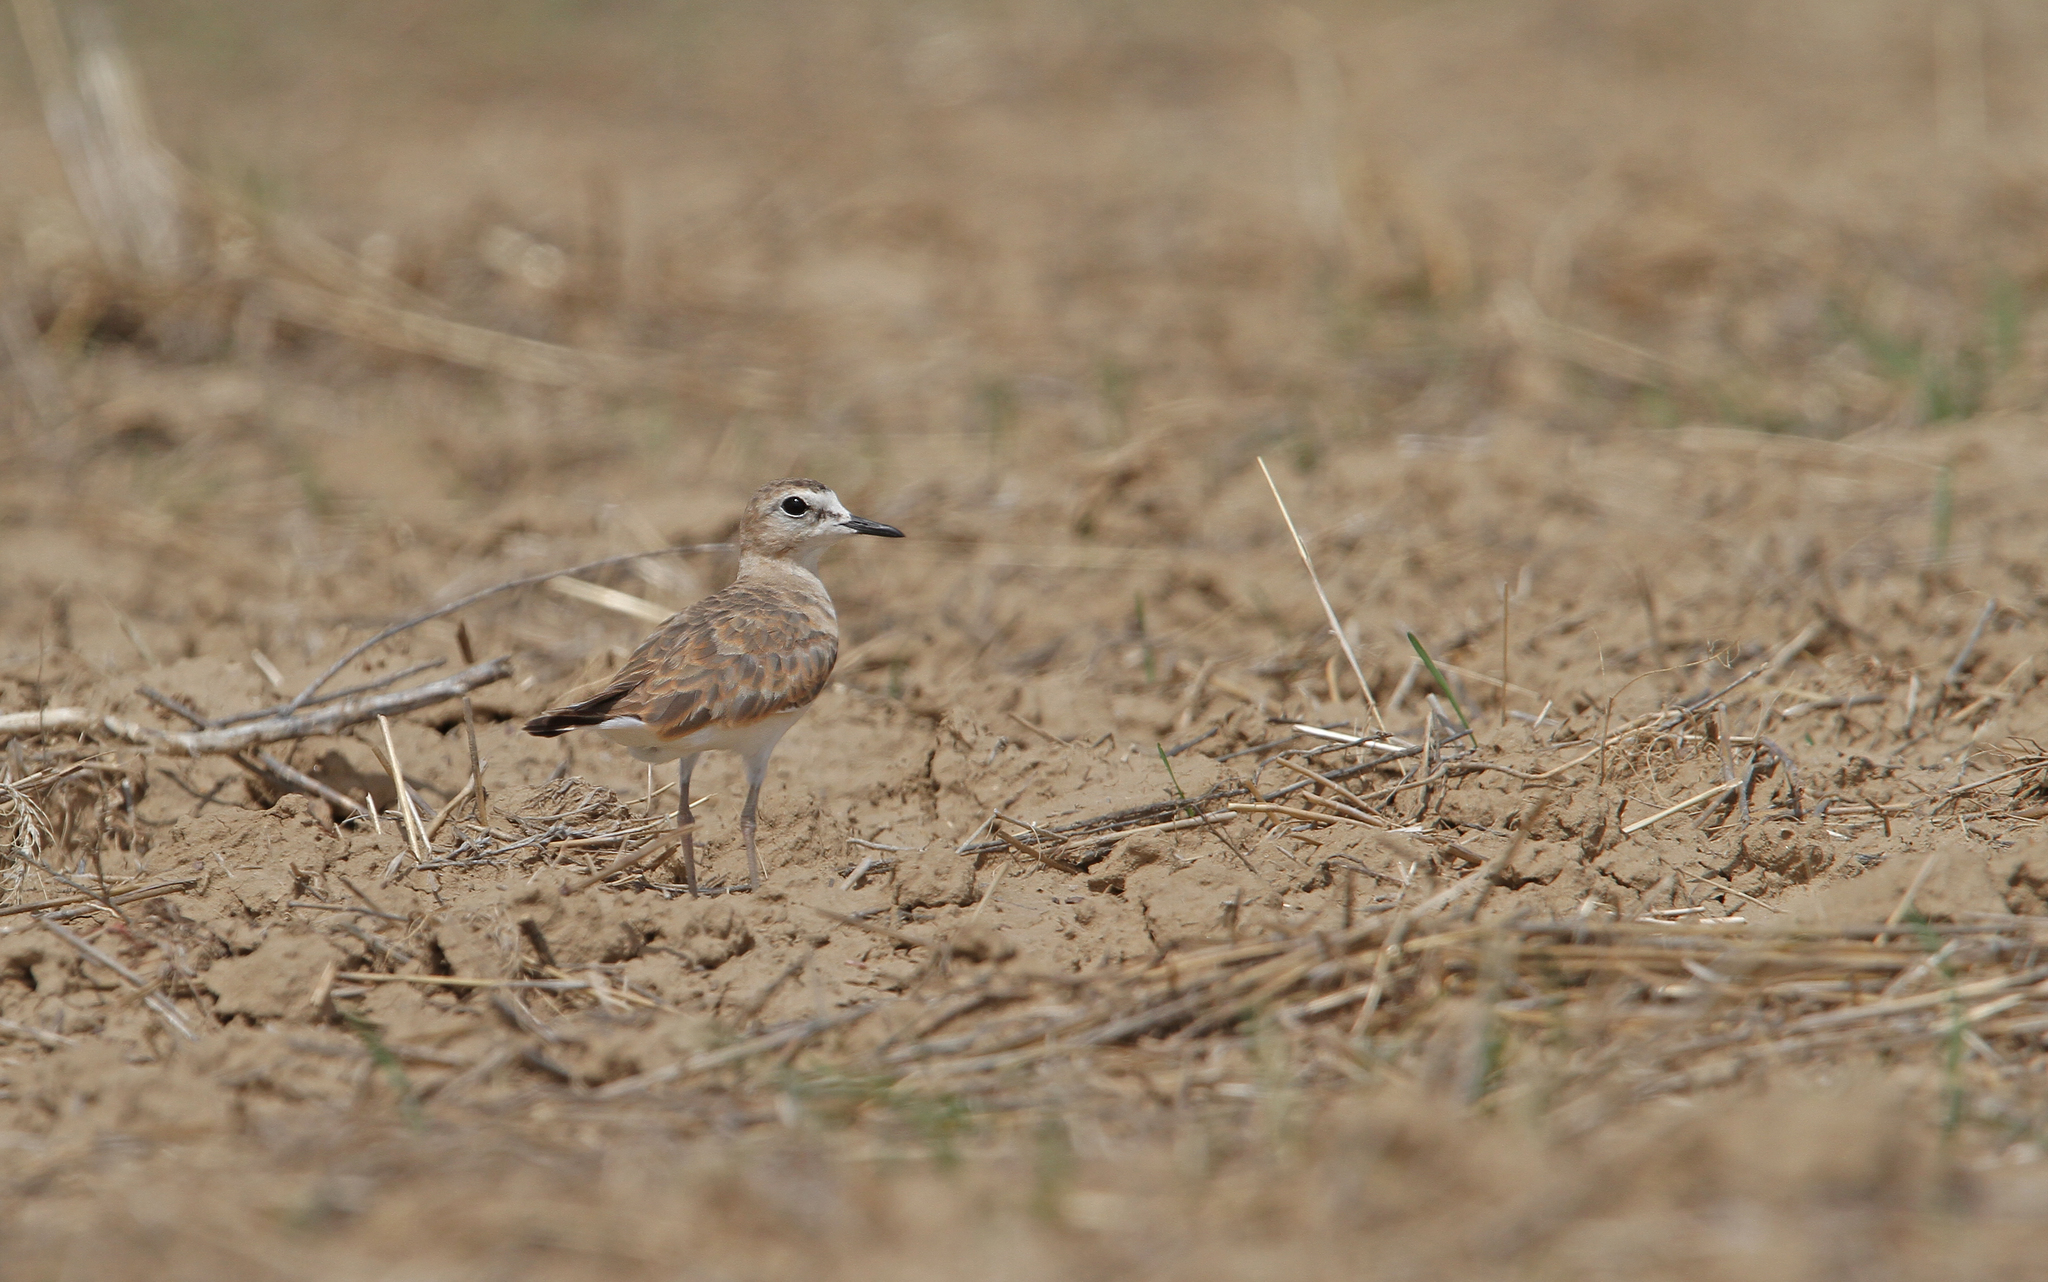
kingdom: Animalia
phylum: Chordata
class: Aves
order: Charadriiformes
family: Charadriidae
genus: Anarhynchus
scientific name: Anarhynchus
